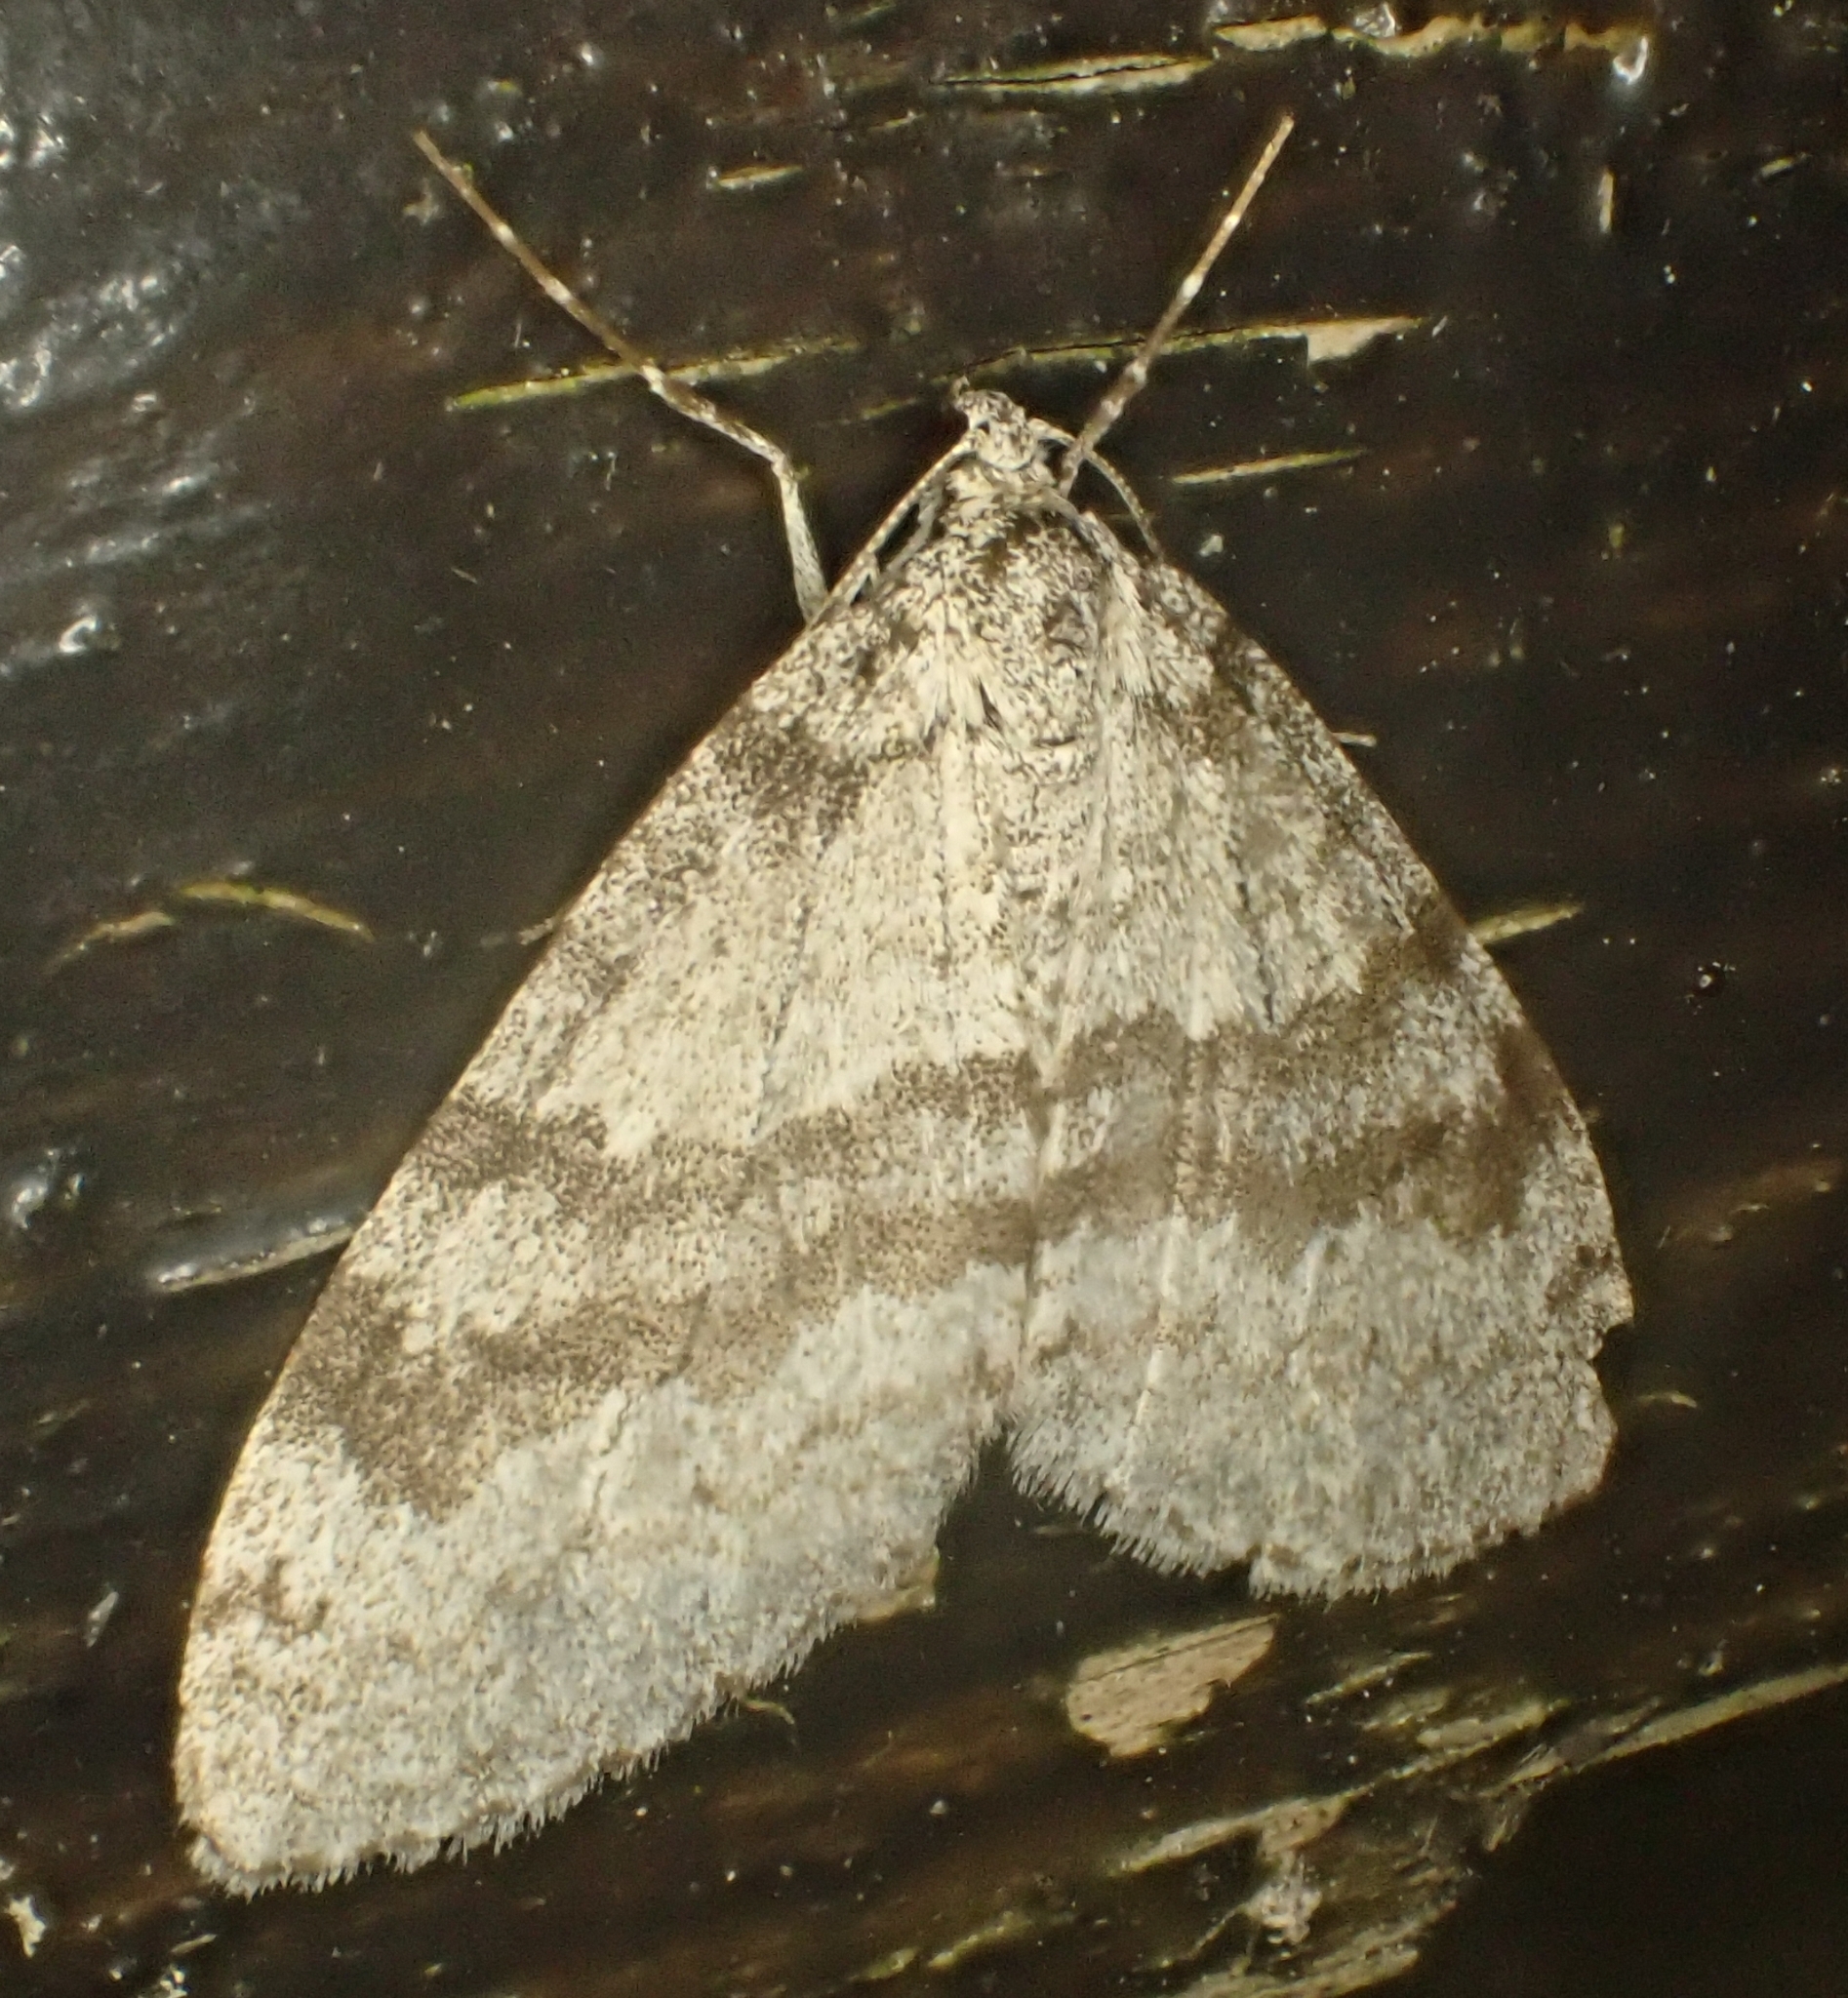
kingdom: Animalia
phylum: Arthropoda
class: Insecta
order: Lepidoptera
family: Geometridae
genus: Trichopteryx
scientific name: Trichopteryx carpinata
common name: Early tooth-striped
